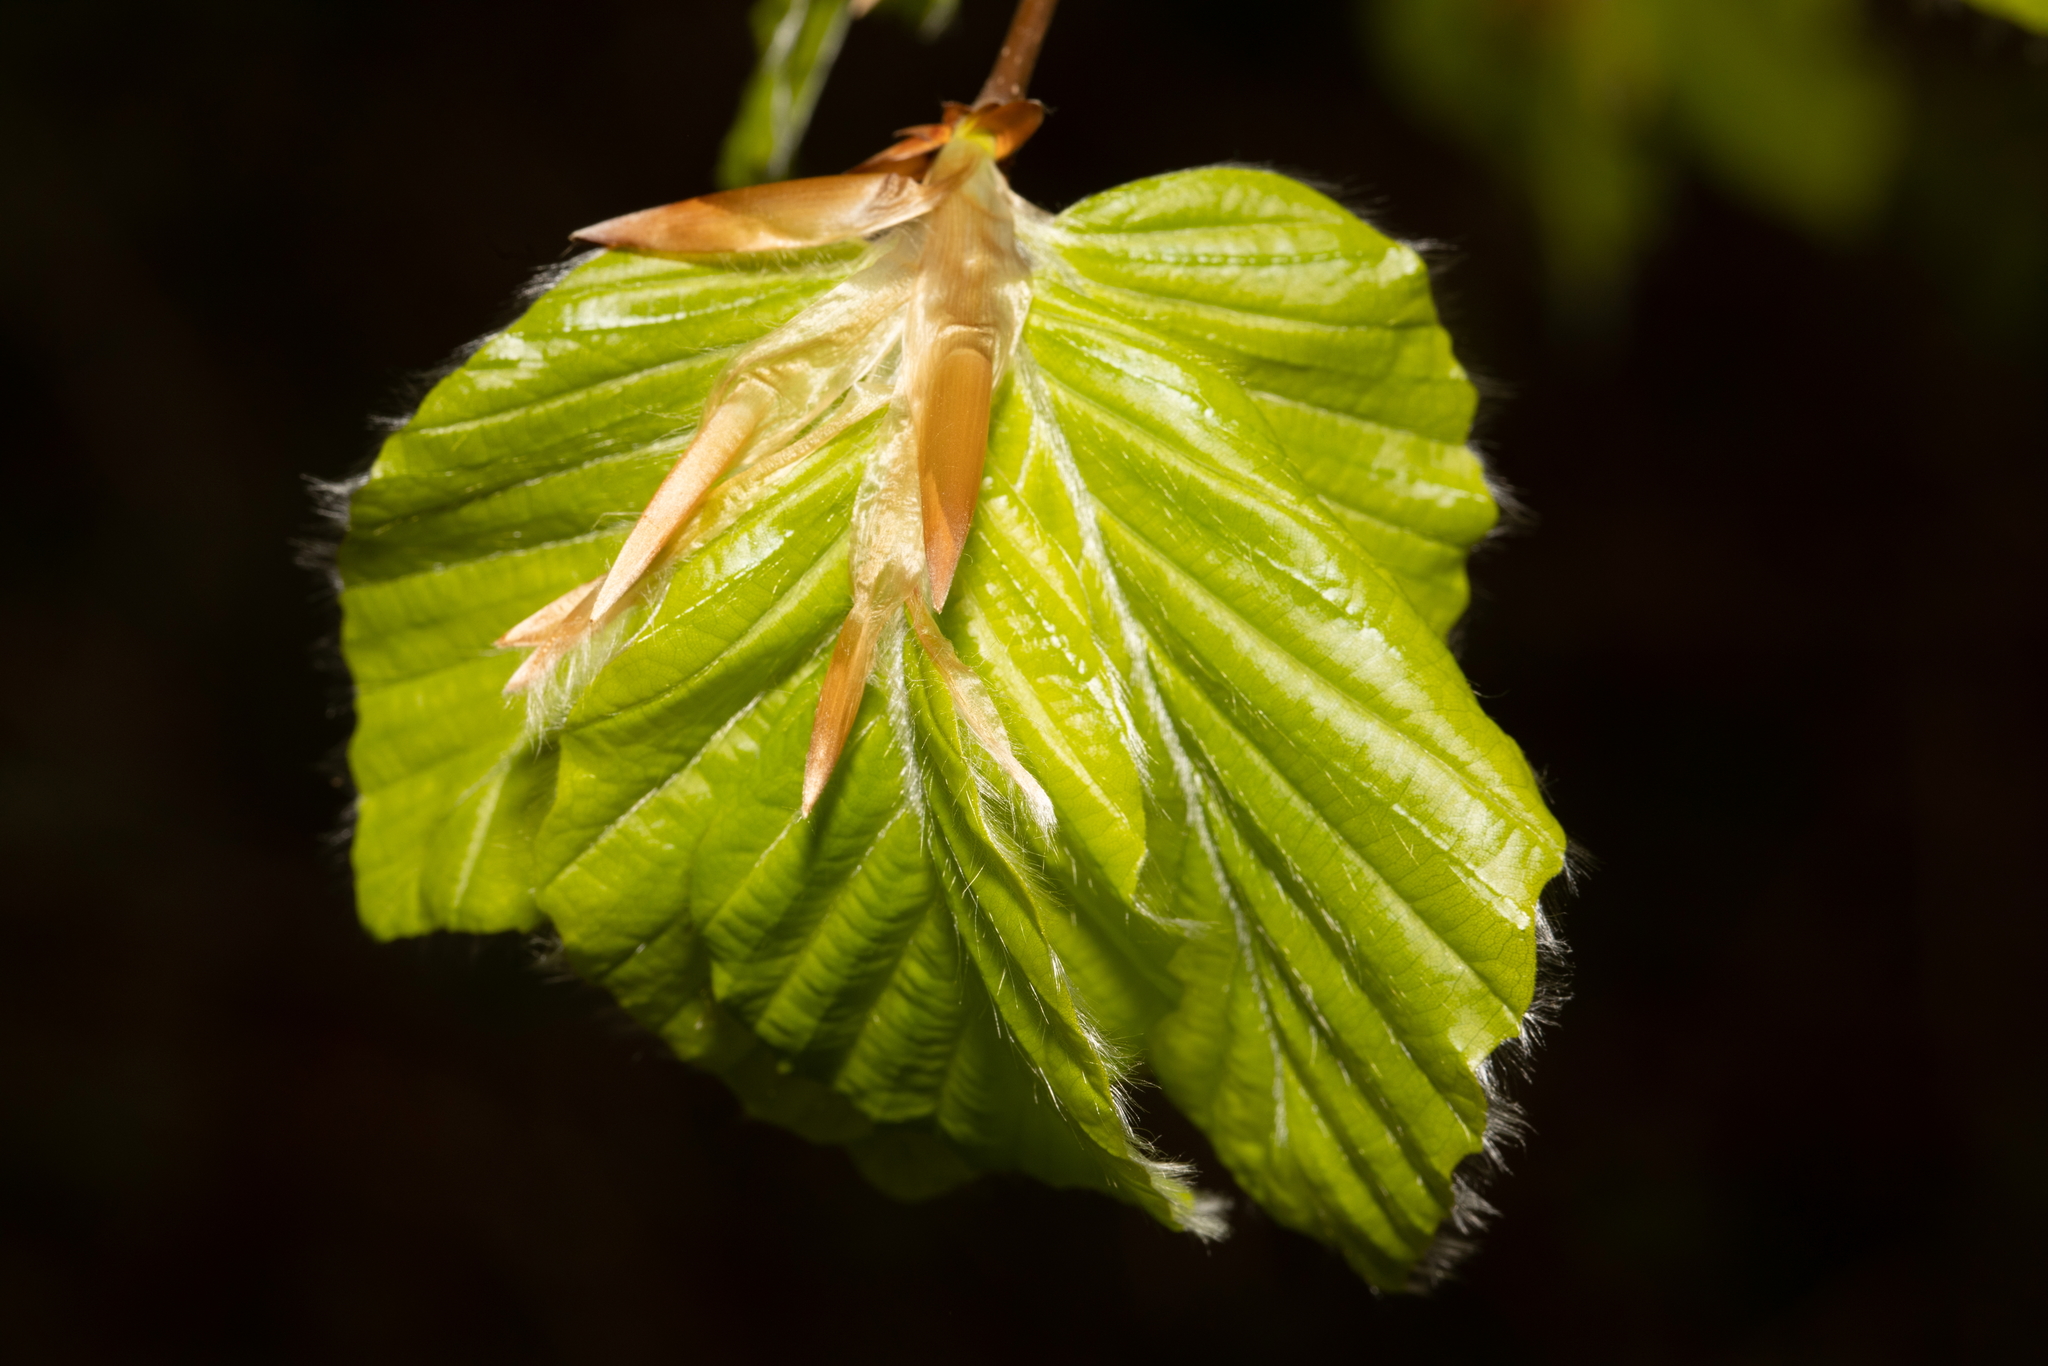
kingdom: Plantae
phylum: Tracheophyta
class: Magnoliopsida
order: Fagales
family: Fagaceae
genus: Fagus
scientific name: Fagus sylvatica
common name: Beech
